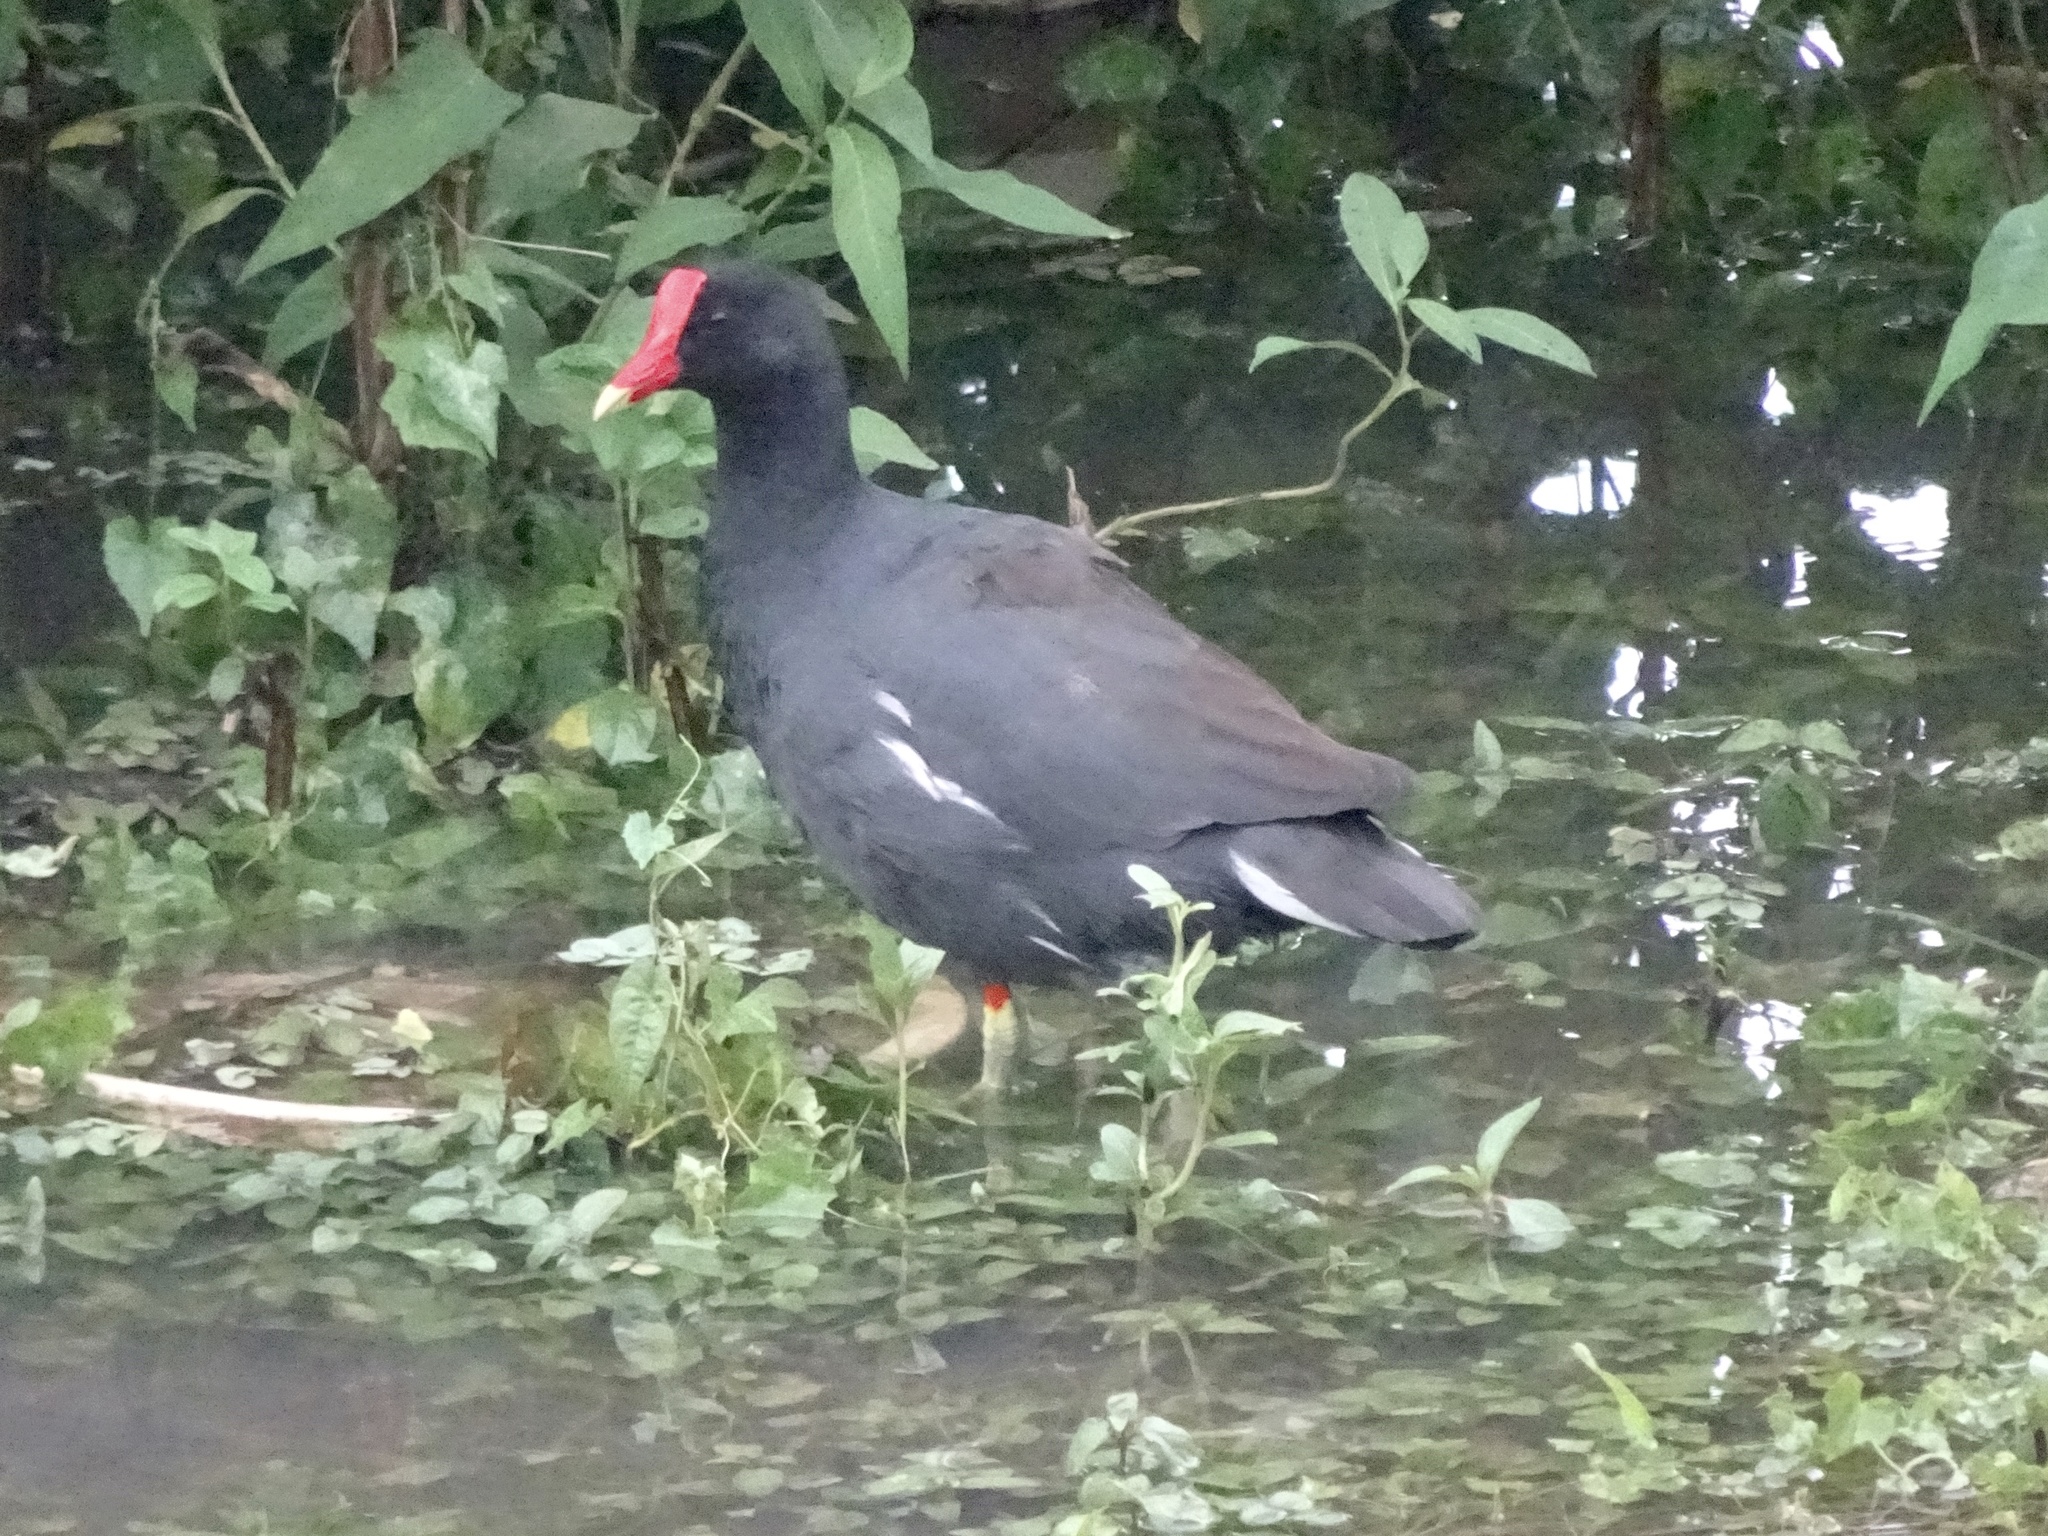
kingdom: Animalia
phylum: Chordata
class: Aves
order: Gruiformes
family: Rallidae
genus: Gallinula
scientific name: Gallinula chloropus
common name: Common moorhen
